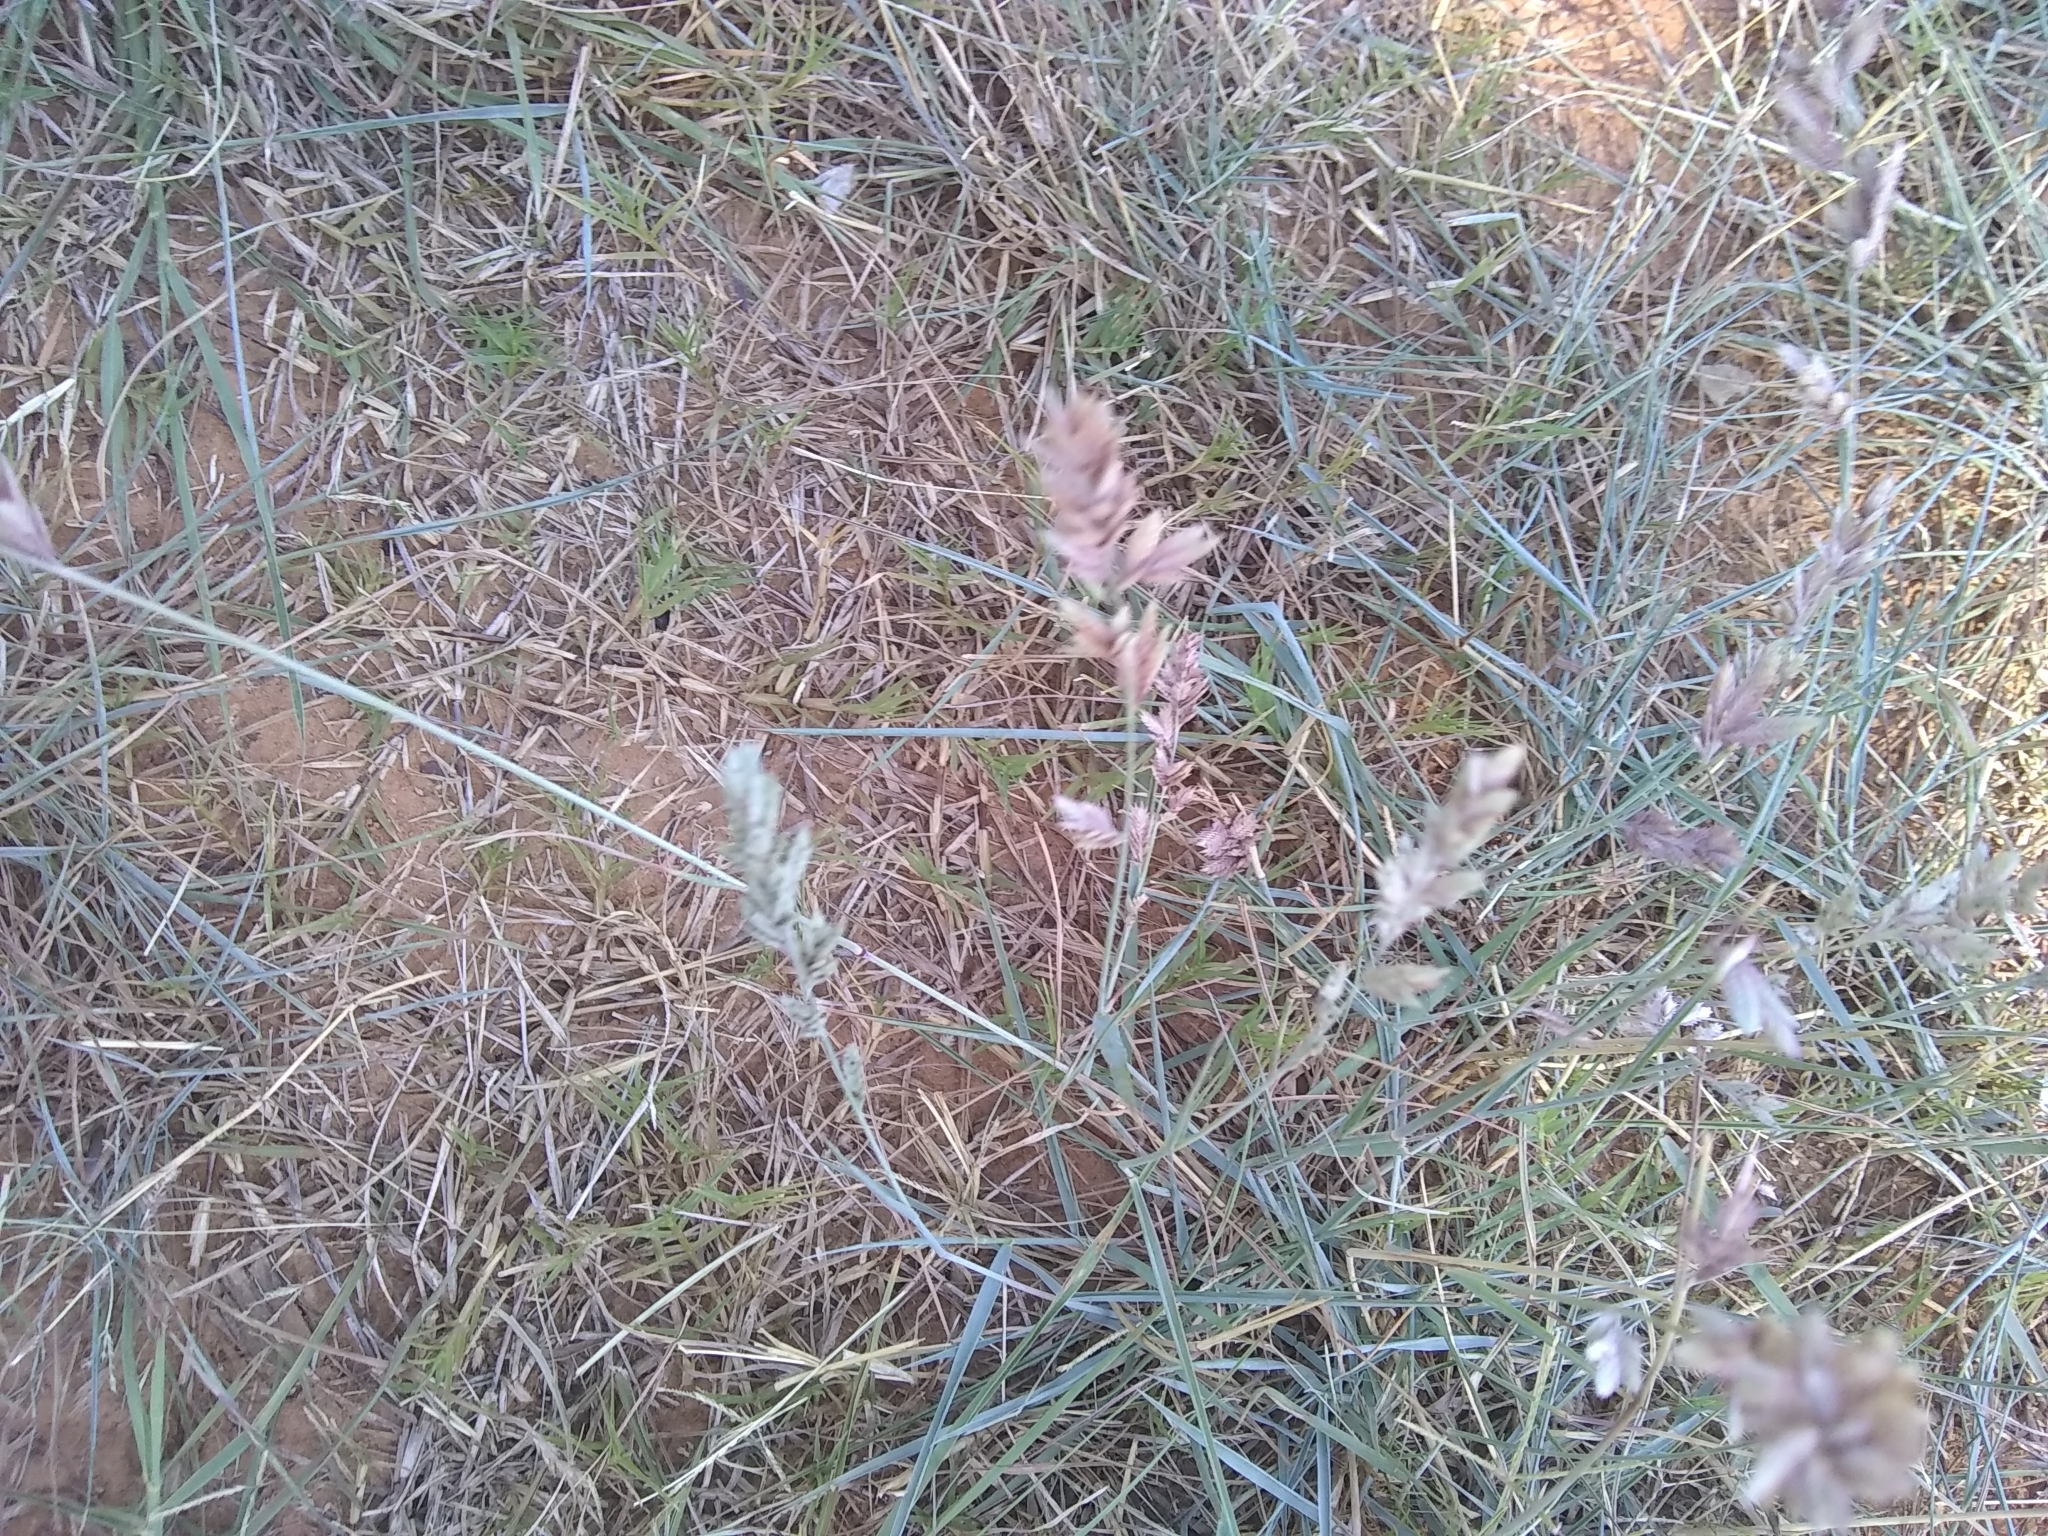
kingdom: Plantae
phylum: Tracheophyta
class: Liliopsida
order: Poales
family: Poaceae
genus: Eragrostis
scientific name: Eragrostis secundiflora
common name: Red love grass
